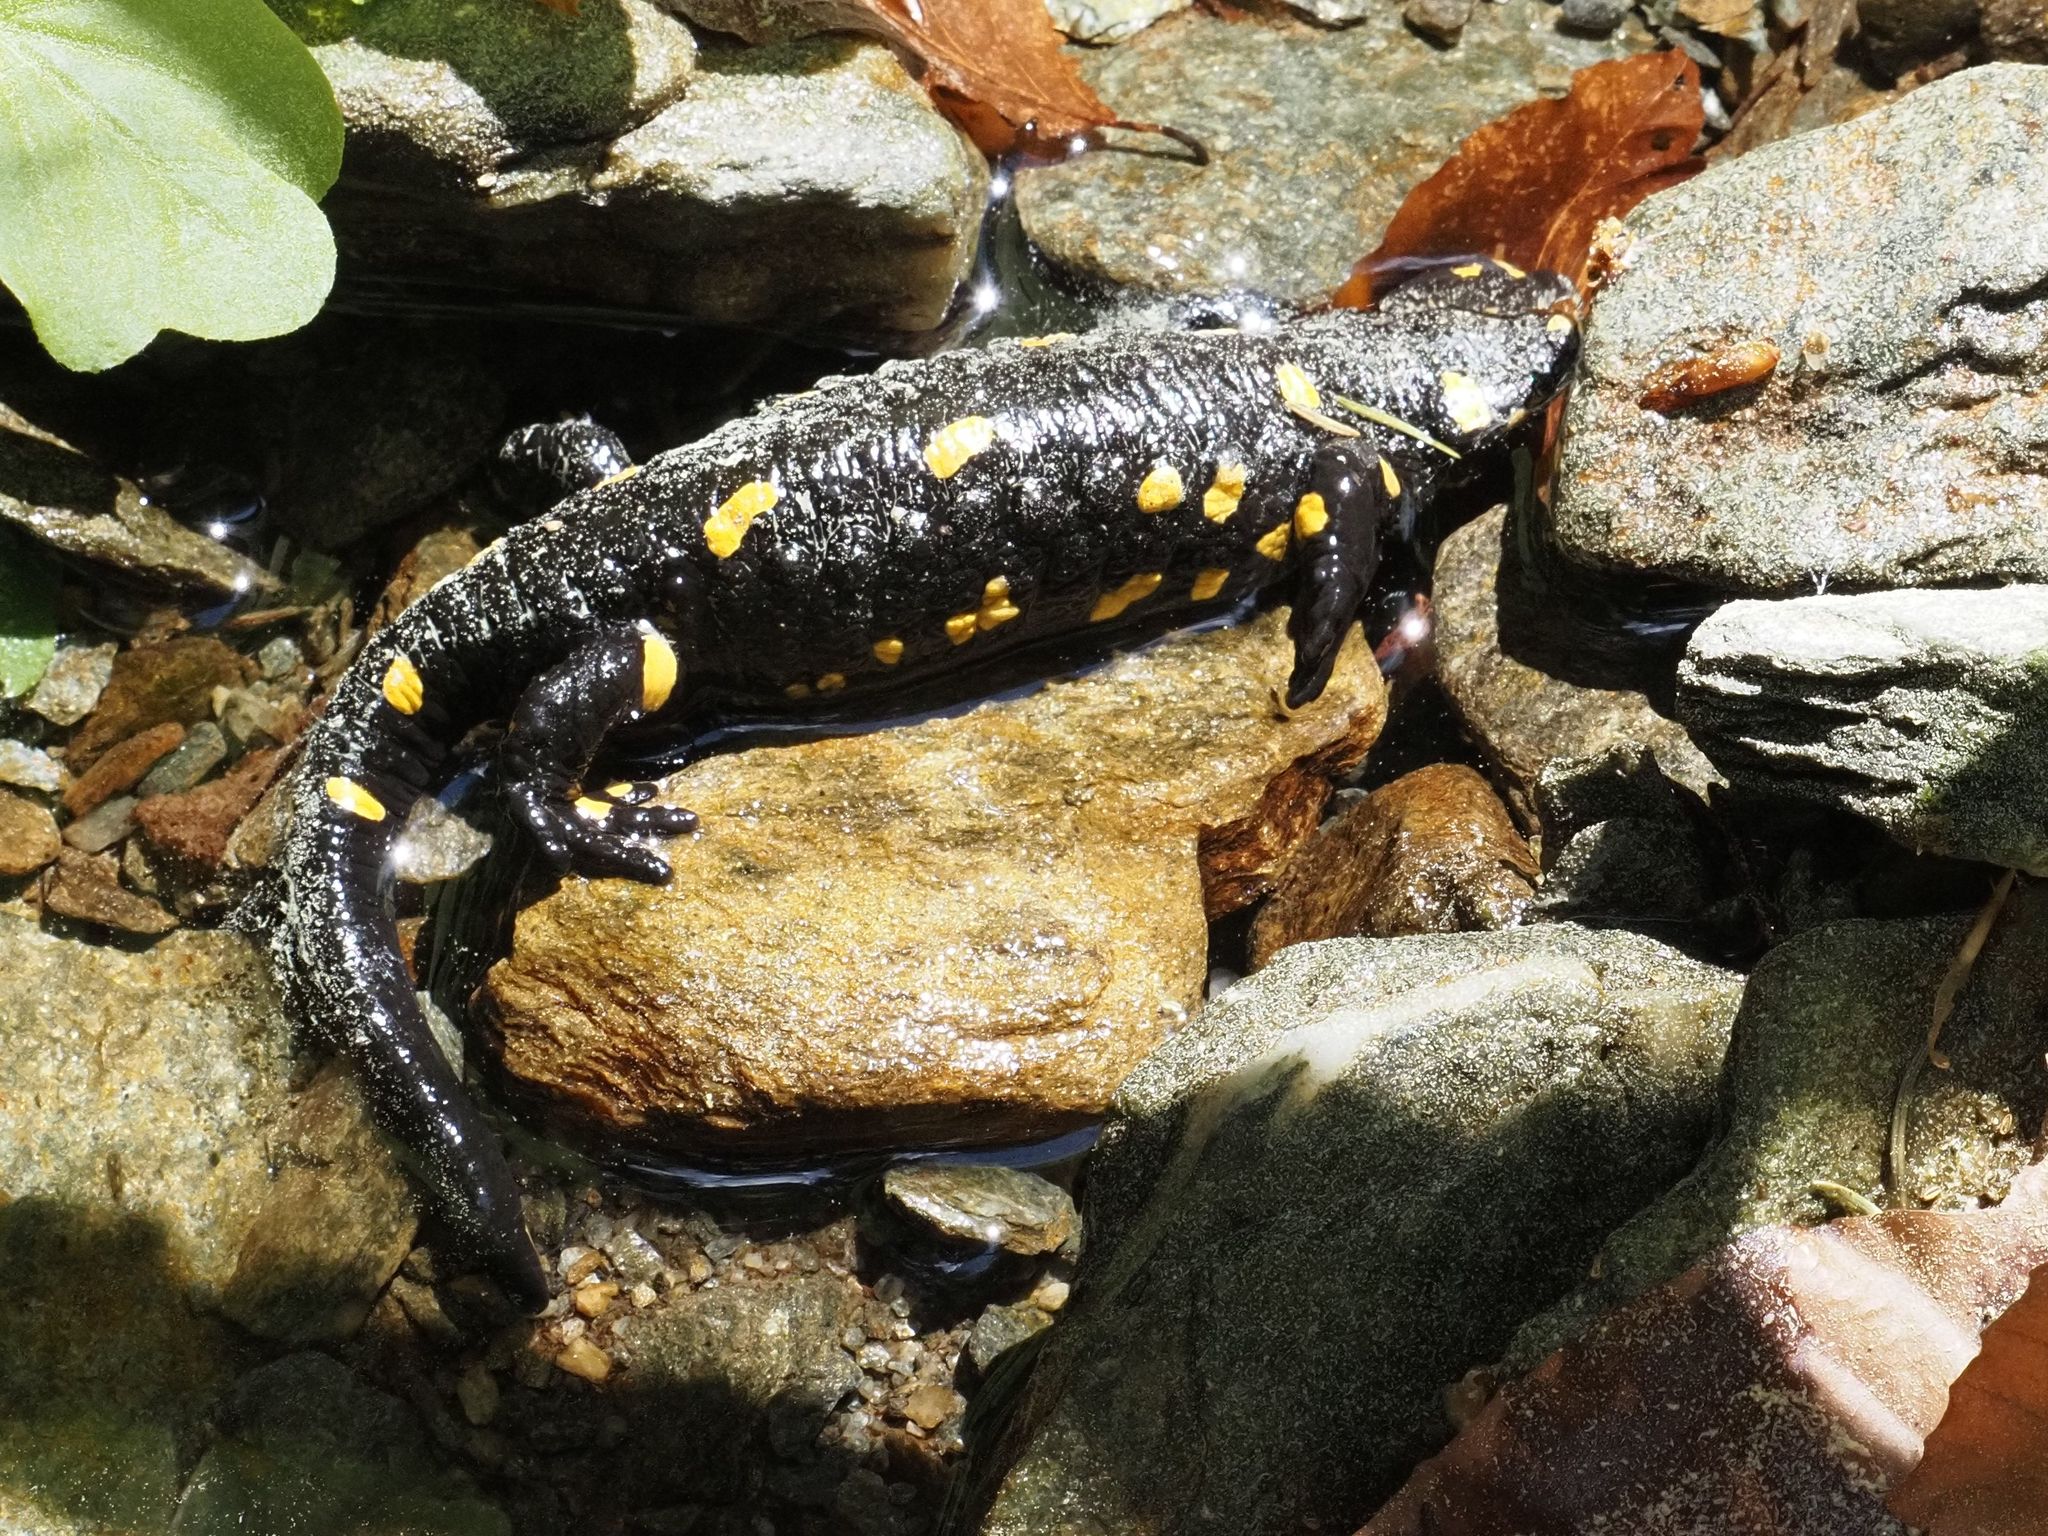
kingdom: Animalia
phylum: Chordata
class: Amphibia
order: Caudata
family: Salamandridae
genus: Salamandra
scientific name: Salamandra salamandra
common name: Fire salamander
